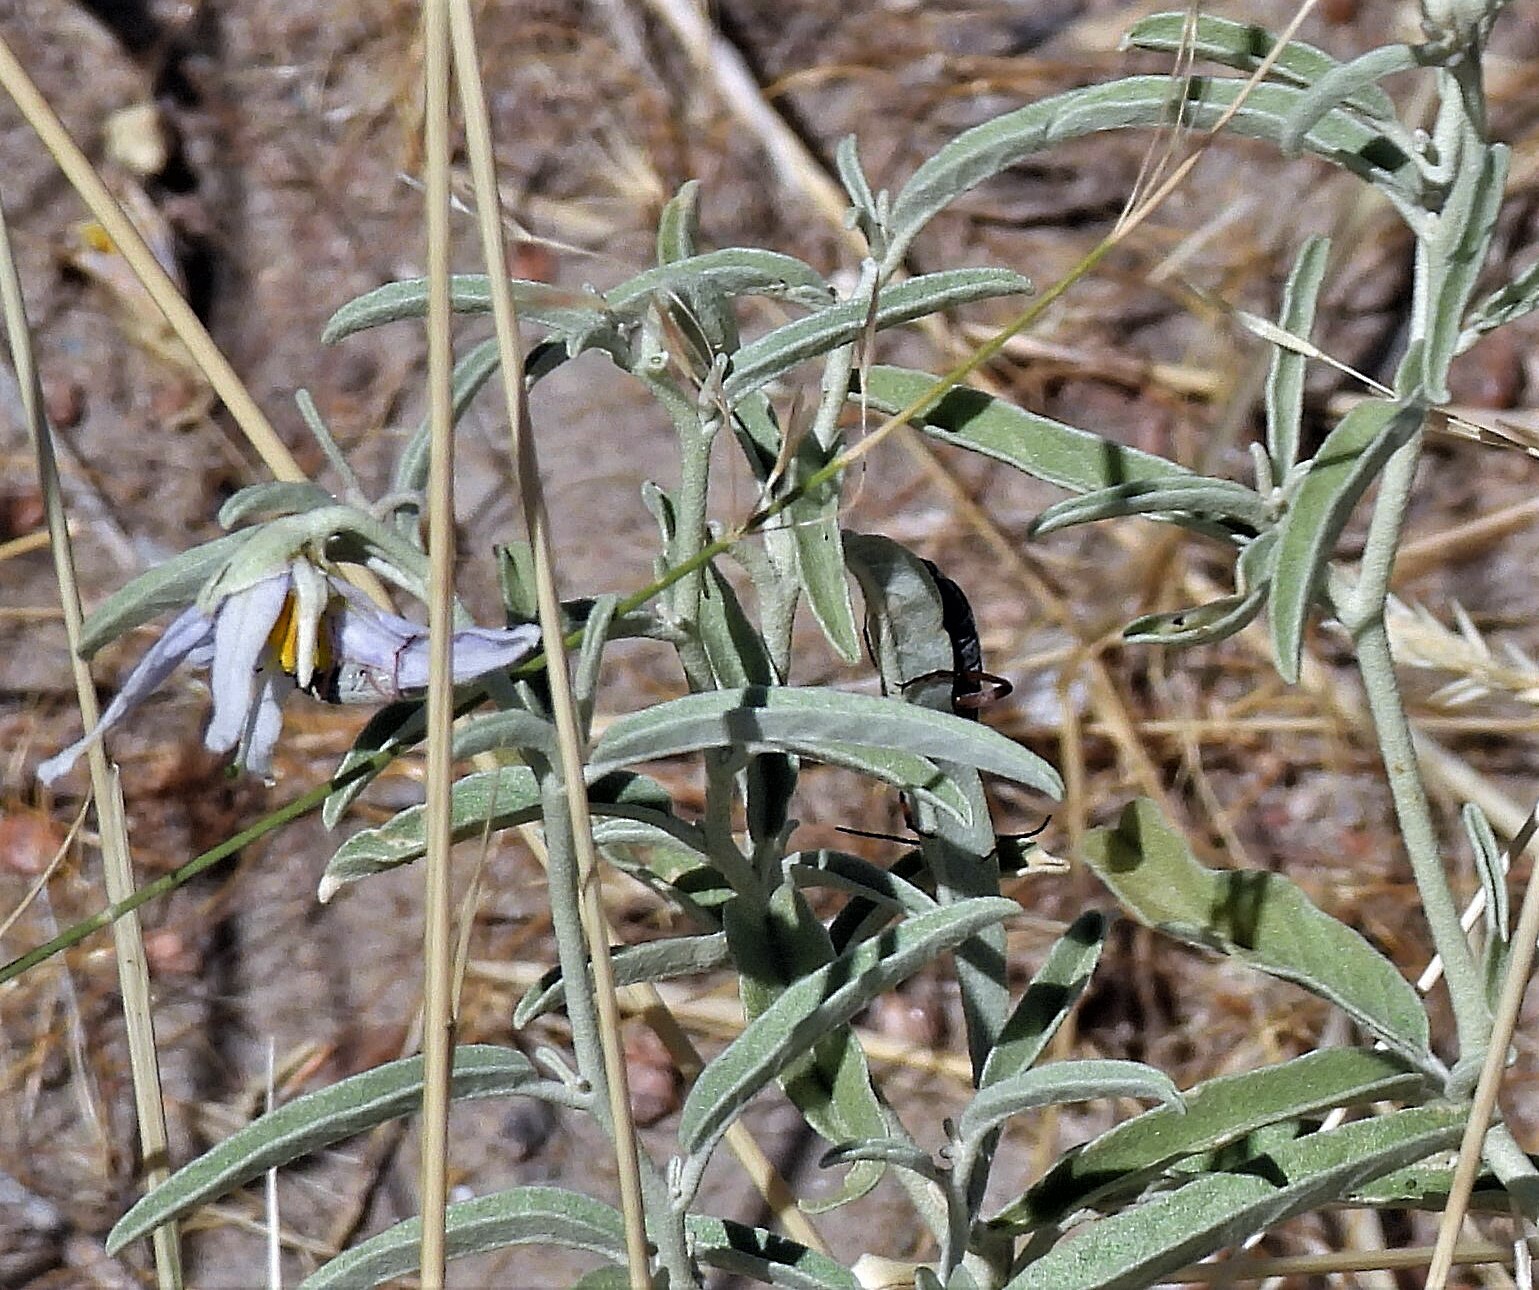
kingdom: Plantae
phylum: Tracheophyta
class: Magnoliopsida
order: Solanales
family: Solanaceae
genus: Solanum
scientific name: Solanum elaeagnifolium
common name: Silverleaf nightshade
